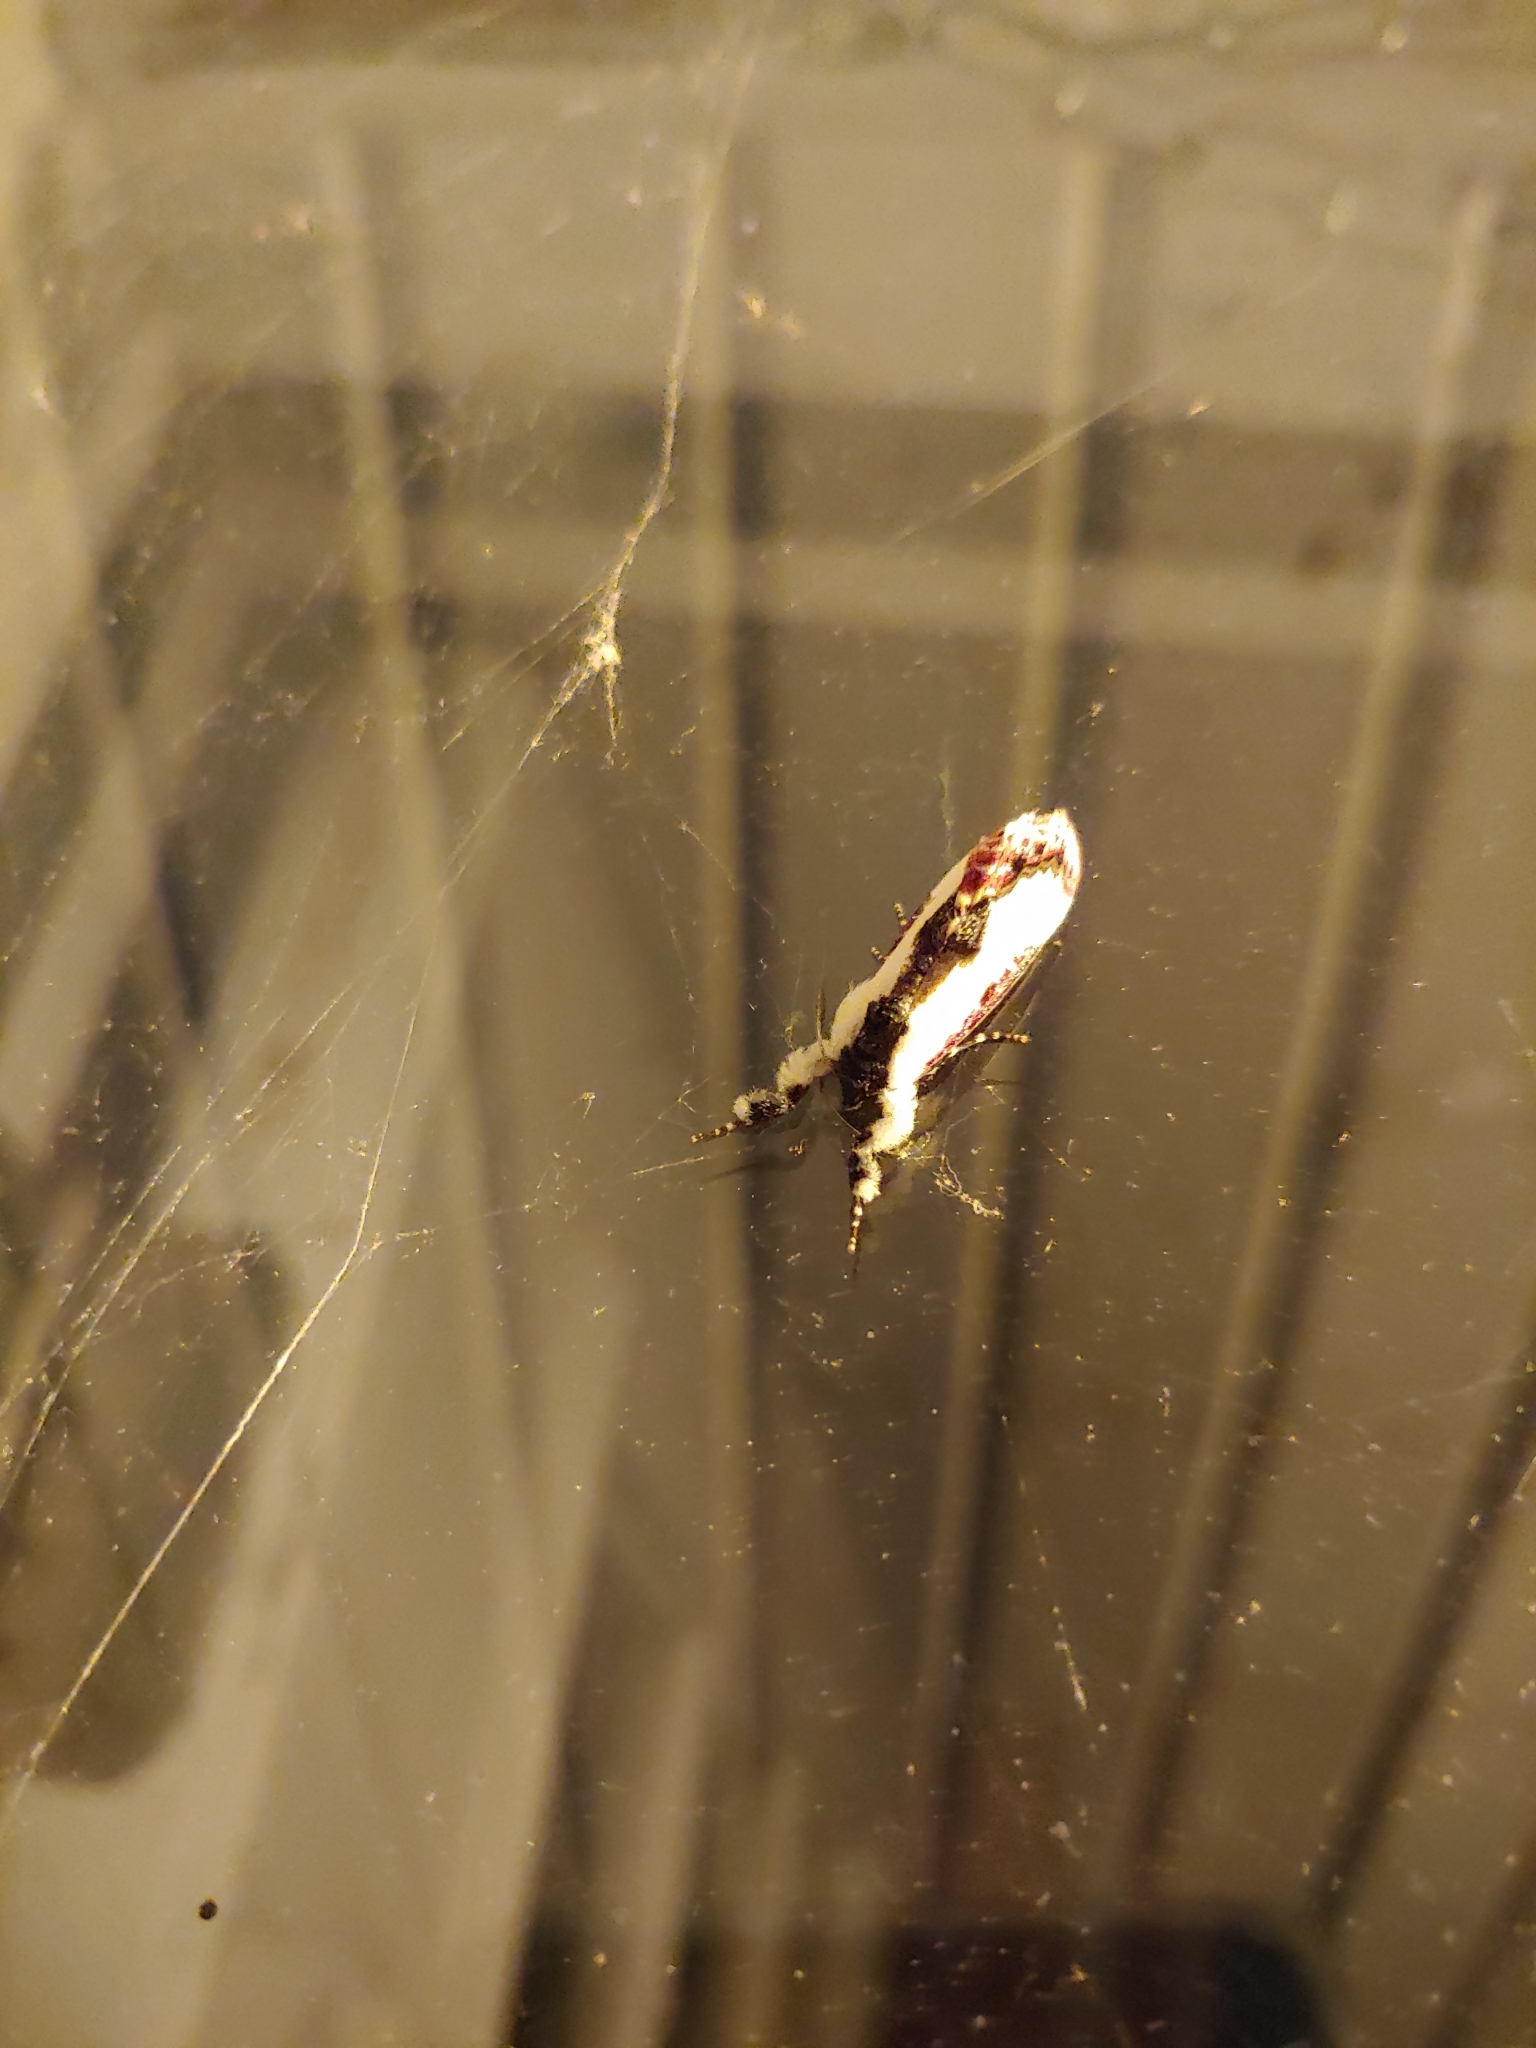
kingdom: Animalia
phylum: Arthropoda
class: Insecta
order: Lepidoptera
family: Noctuidae
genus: Eudryas
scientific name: Eudryas unio
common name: Pearly wood-nymph
